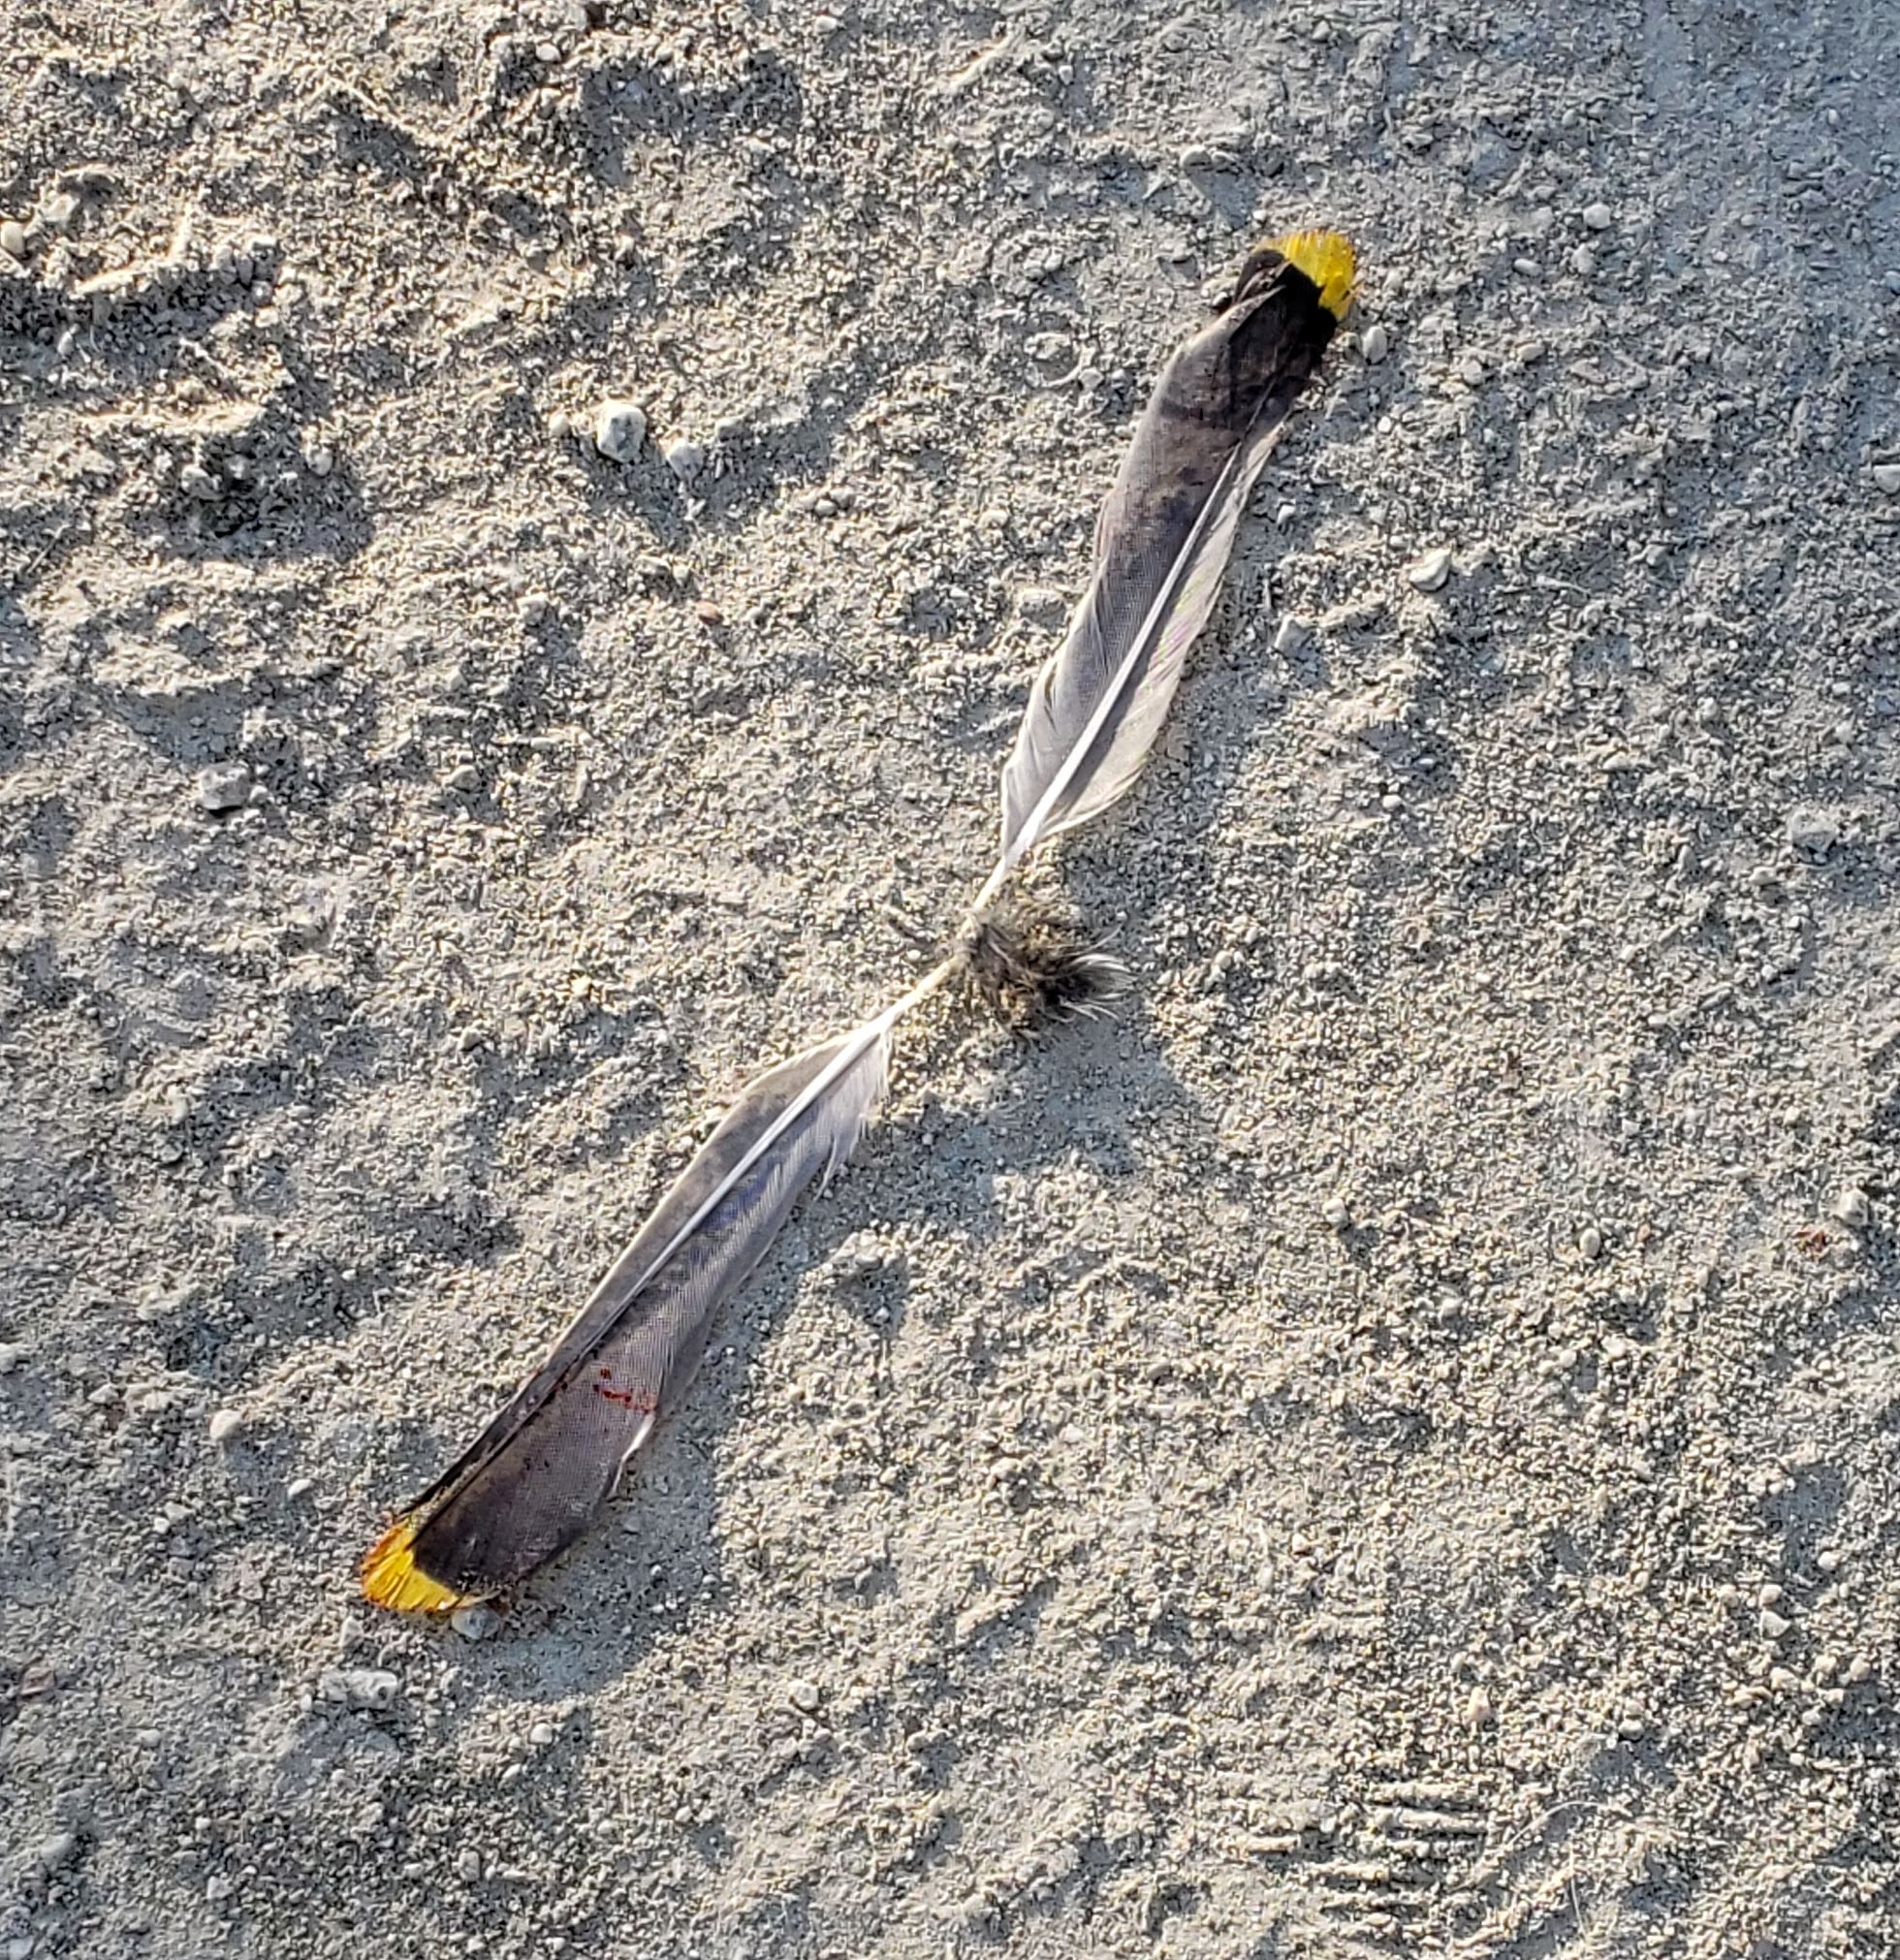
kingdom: Animalia
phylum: Chordata
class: Aves
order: Passeriformes
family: Bombycillidae
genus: Bombycilla
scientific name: Bombycilla
